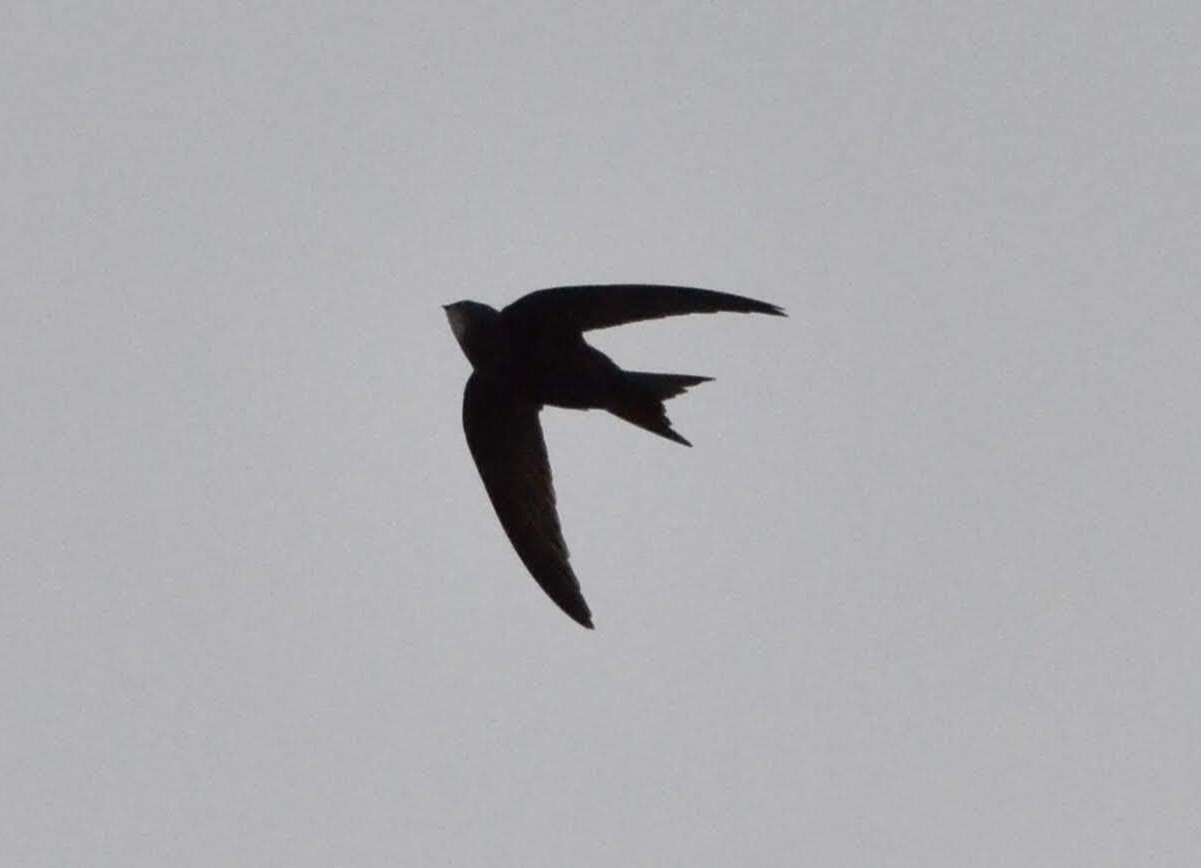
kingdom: Animalia
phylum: Chordata
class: Aves
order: Apodiformes
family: Apodidae
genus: Apus
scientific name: Apus apus
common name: Common swift
